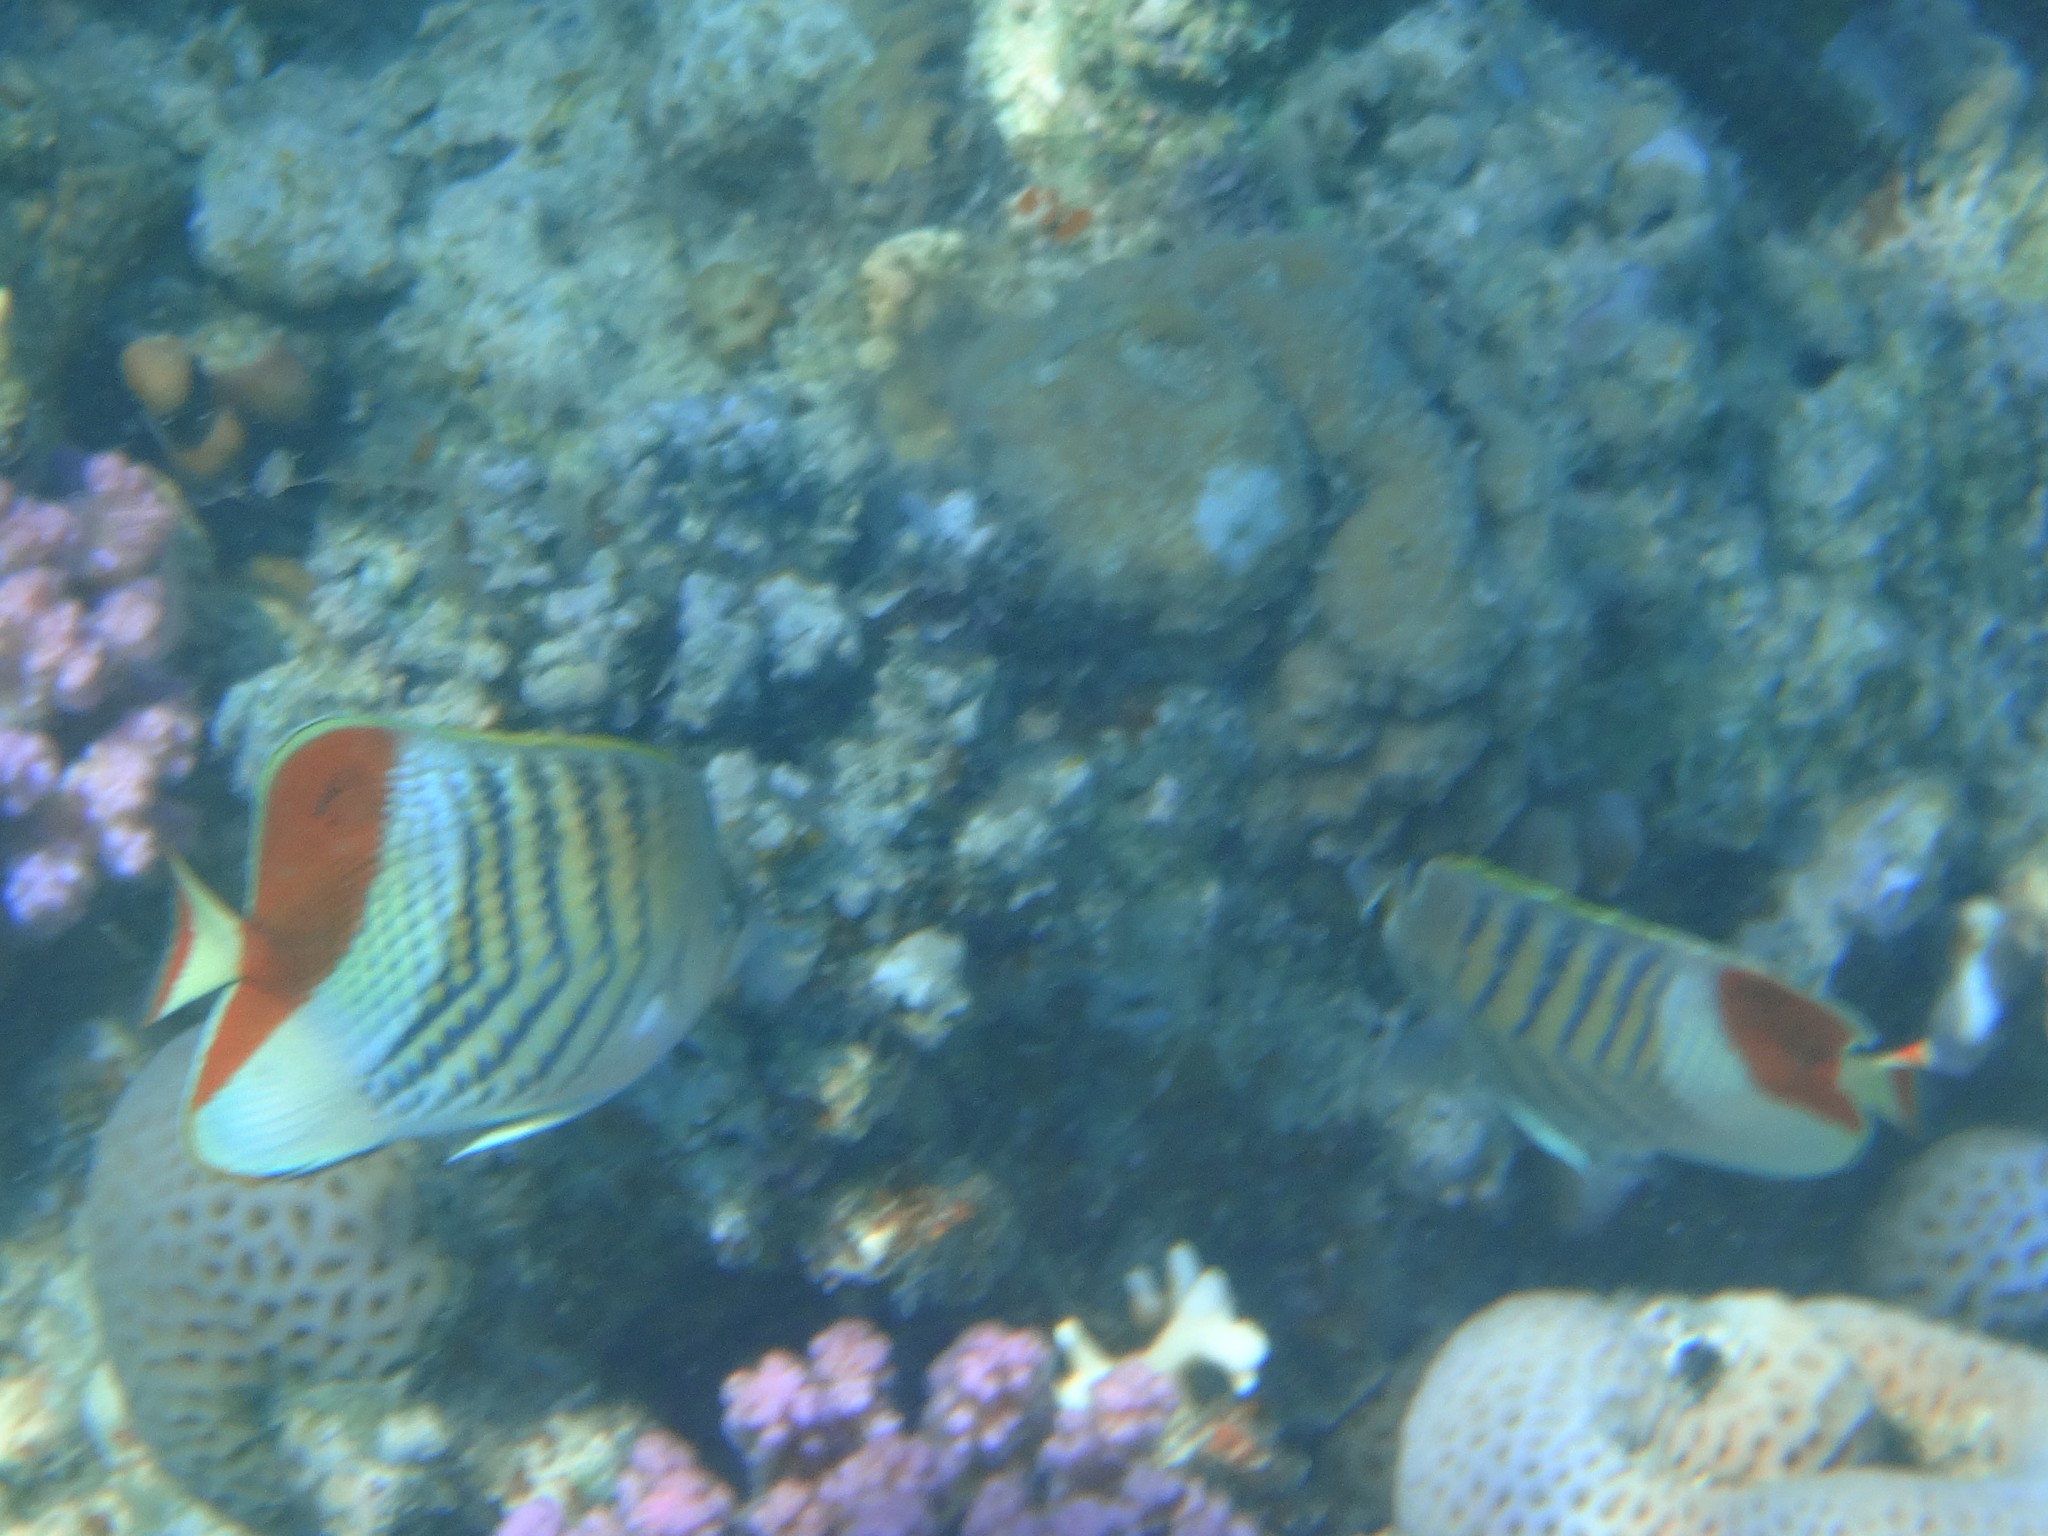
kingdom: Animalia
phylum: Chordata
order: Perciformes
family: Chaetodontidae
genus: Chaetodon
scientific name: Chaetodon paucifasciatus
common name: Crown butterflyfish
